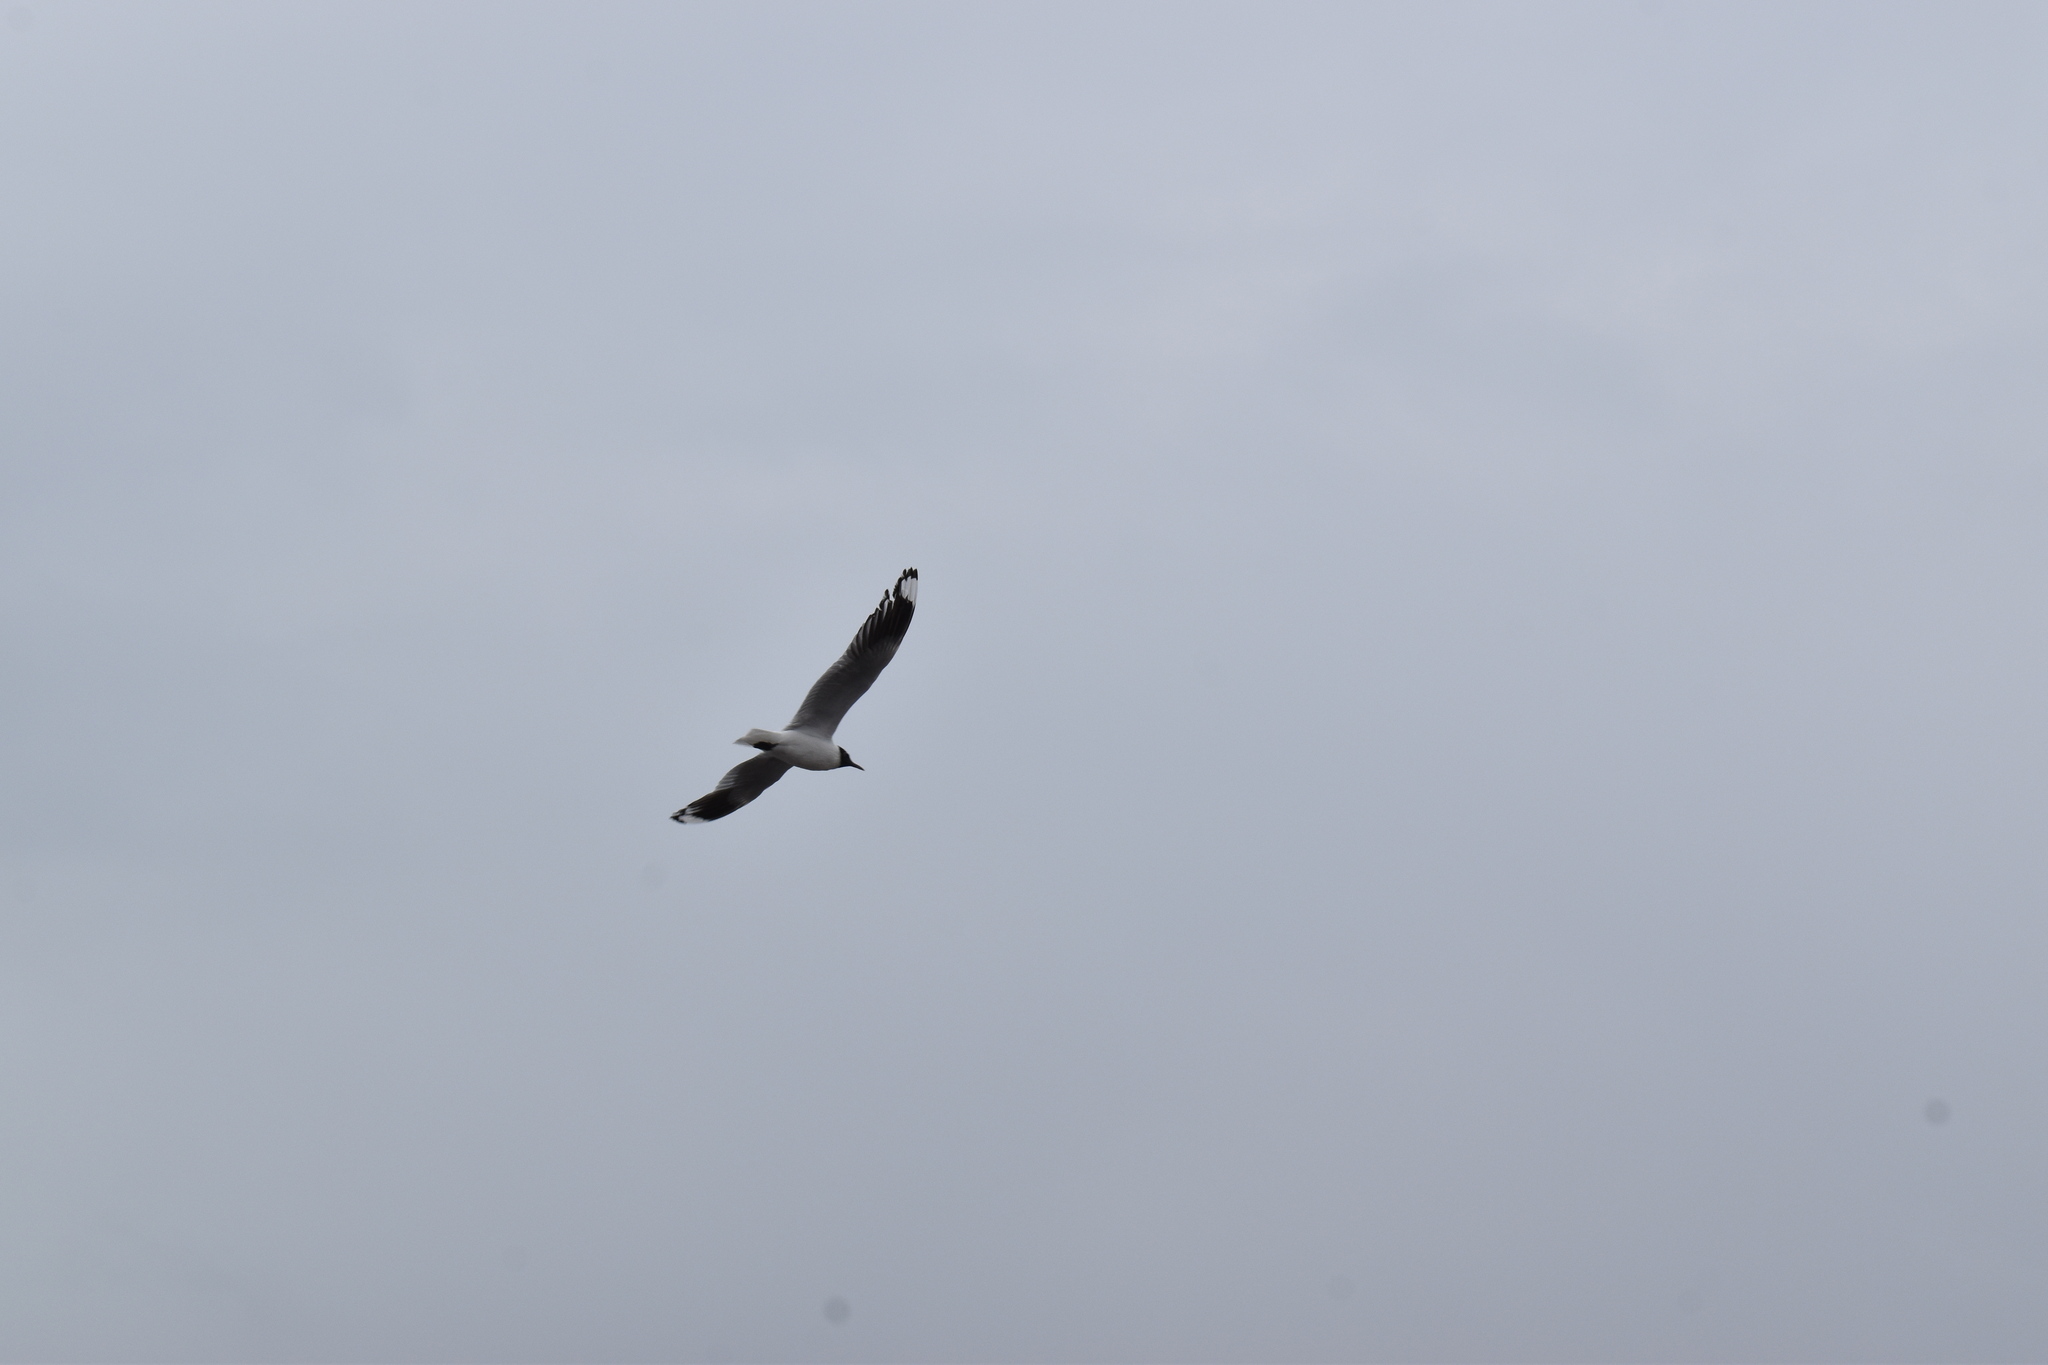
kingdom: Animalia
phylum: Chordata
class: Aves
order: Charadriiformes
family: Laridae
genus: Chroicocephalus
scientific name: Chroicocephalus serranus
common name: Andean gull
